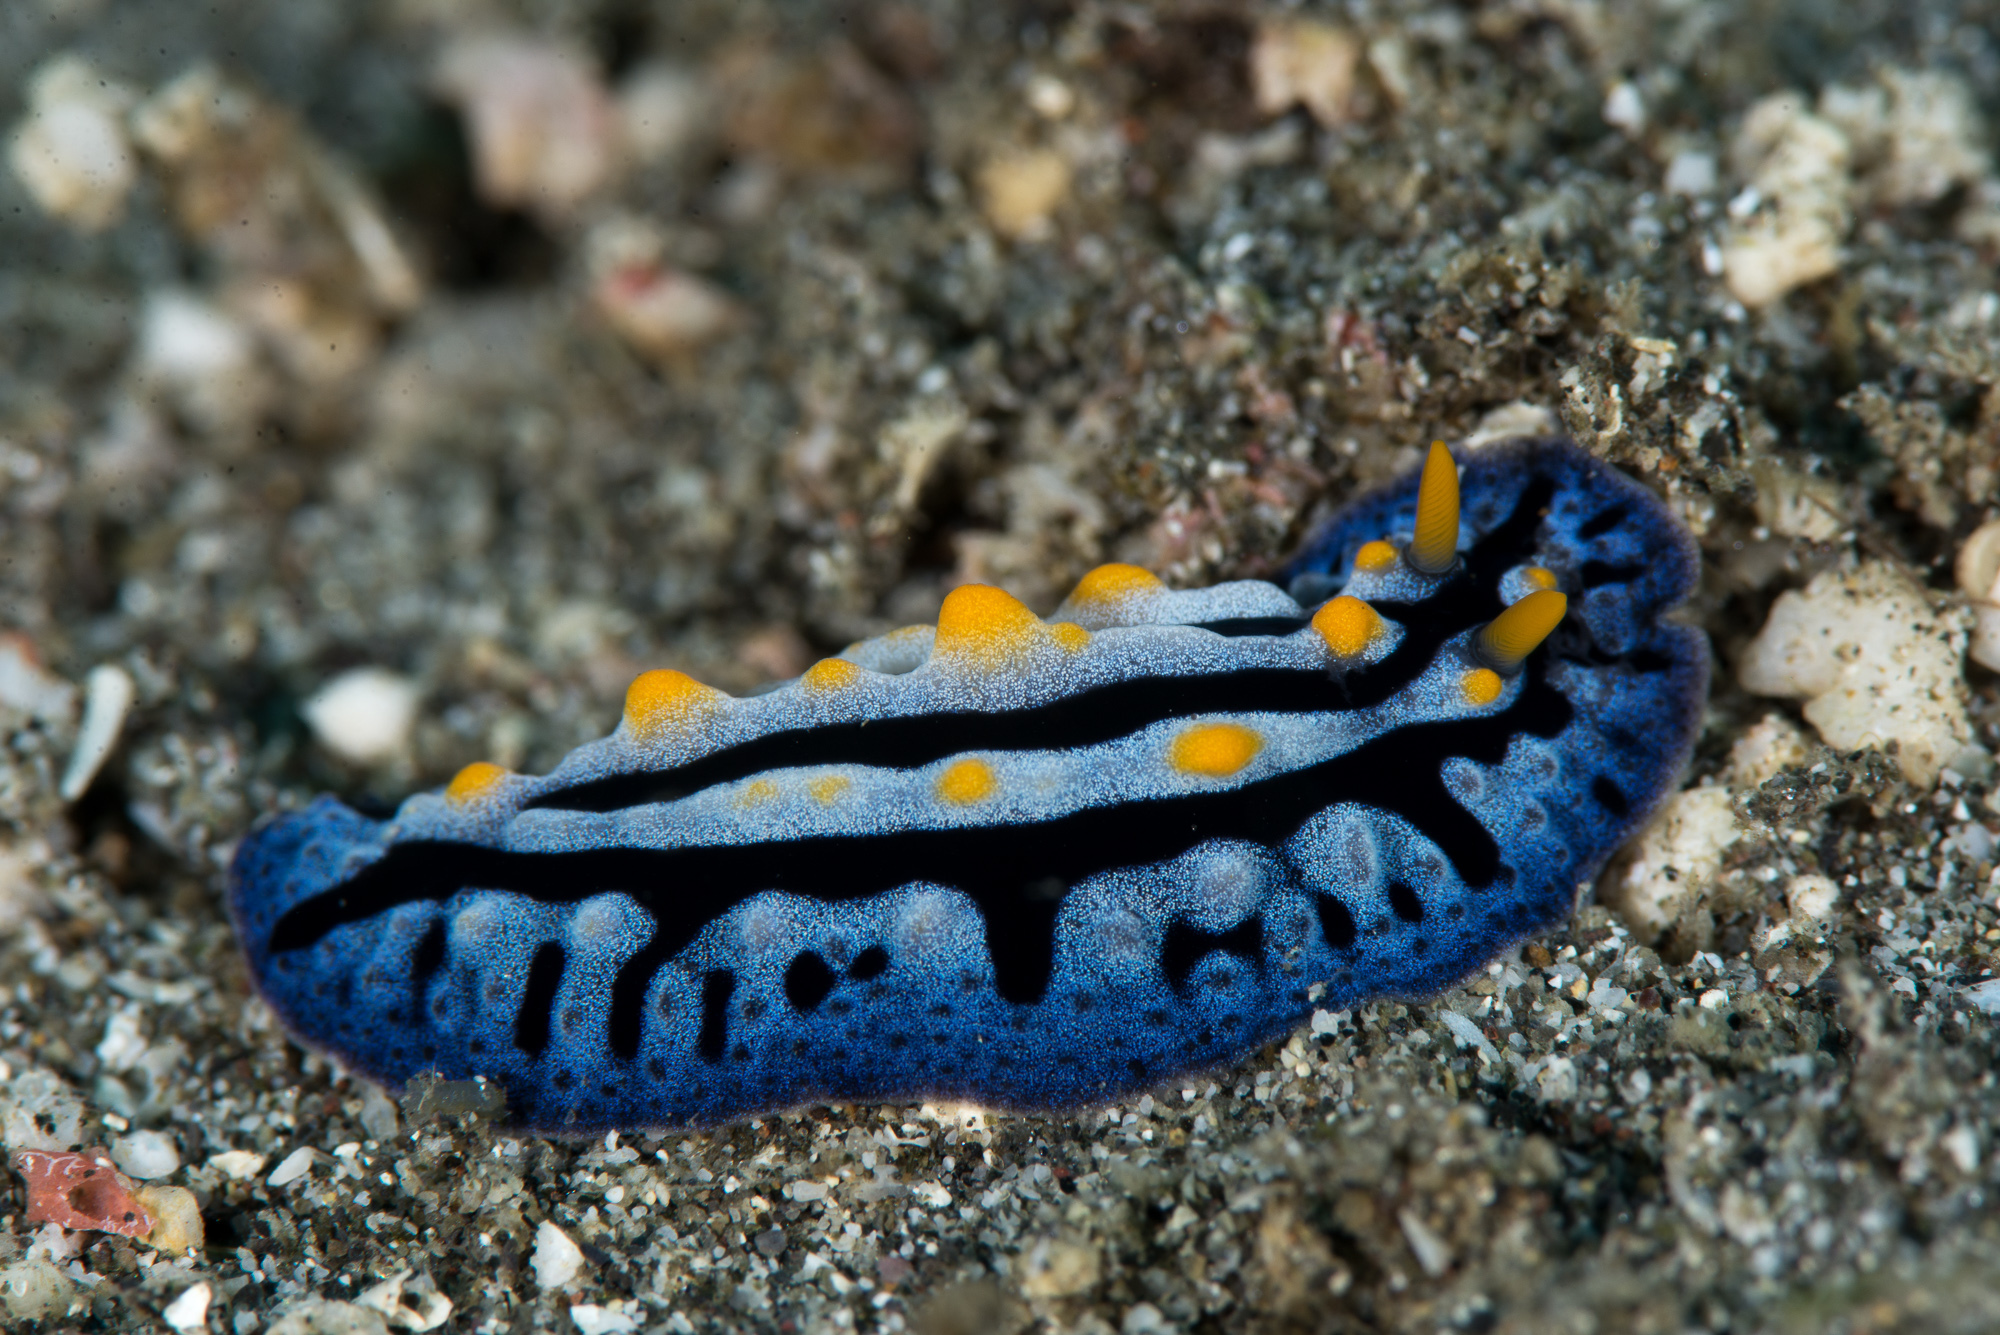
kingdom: Animalia
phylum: Mollusca
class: Gastropoda
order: Nudibranchia
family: Phyllidiidae
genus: Phyllidia
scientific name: Phyllidia haegeli
